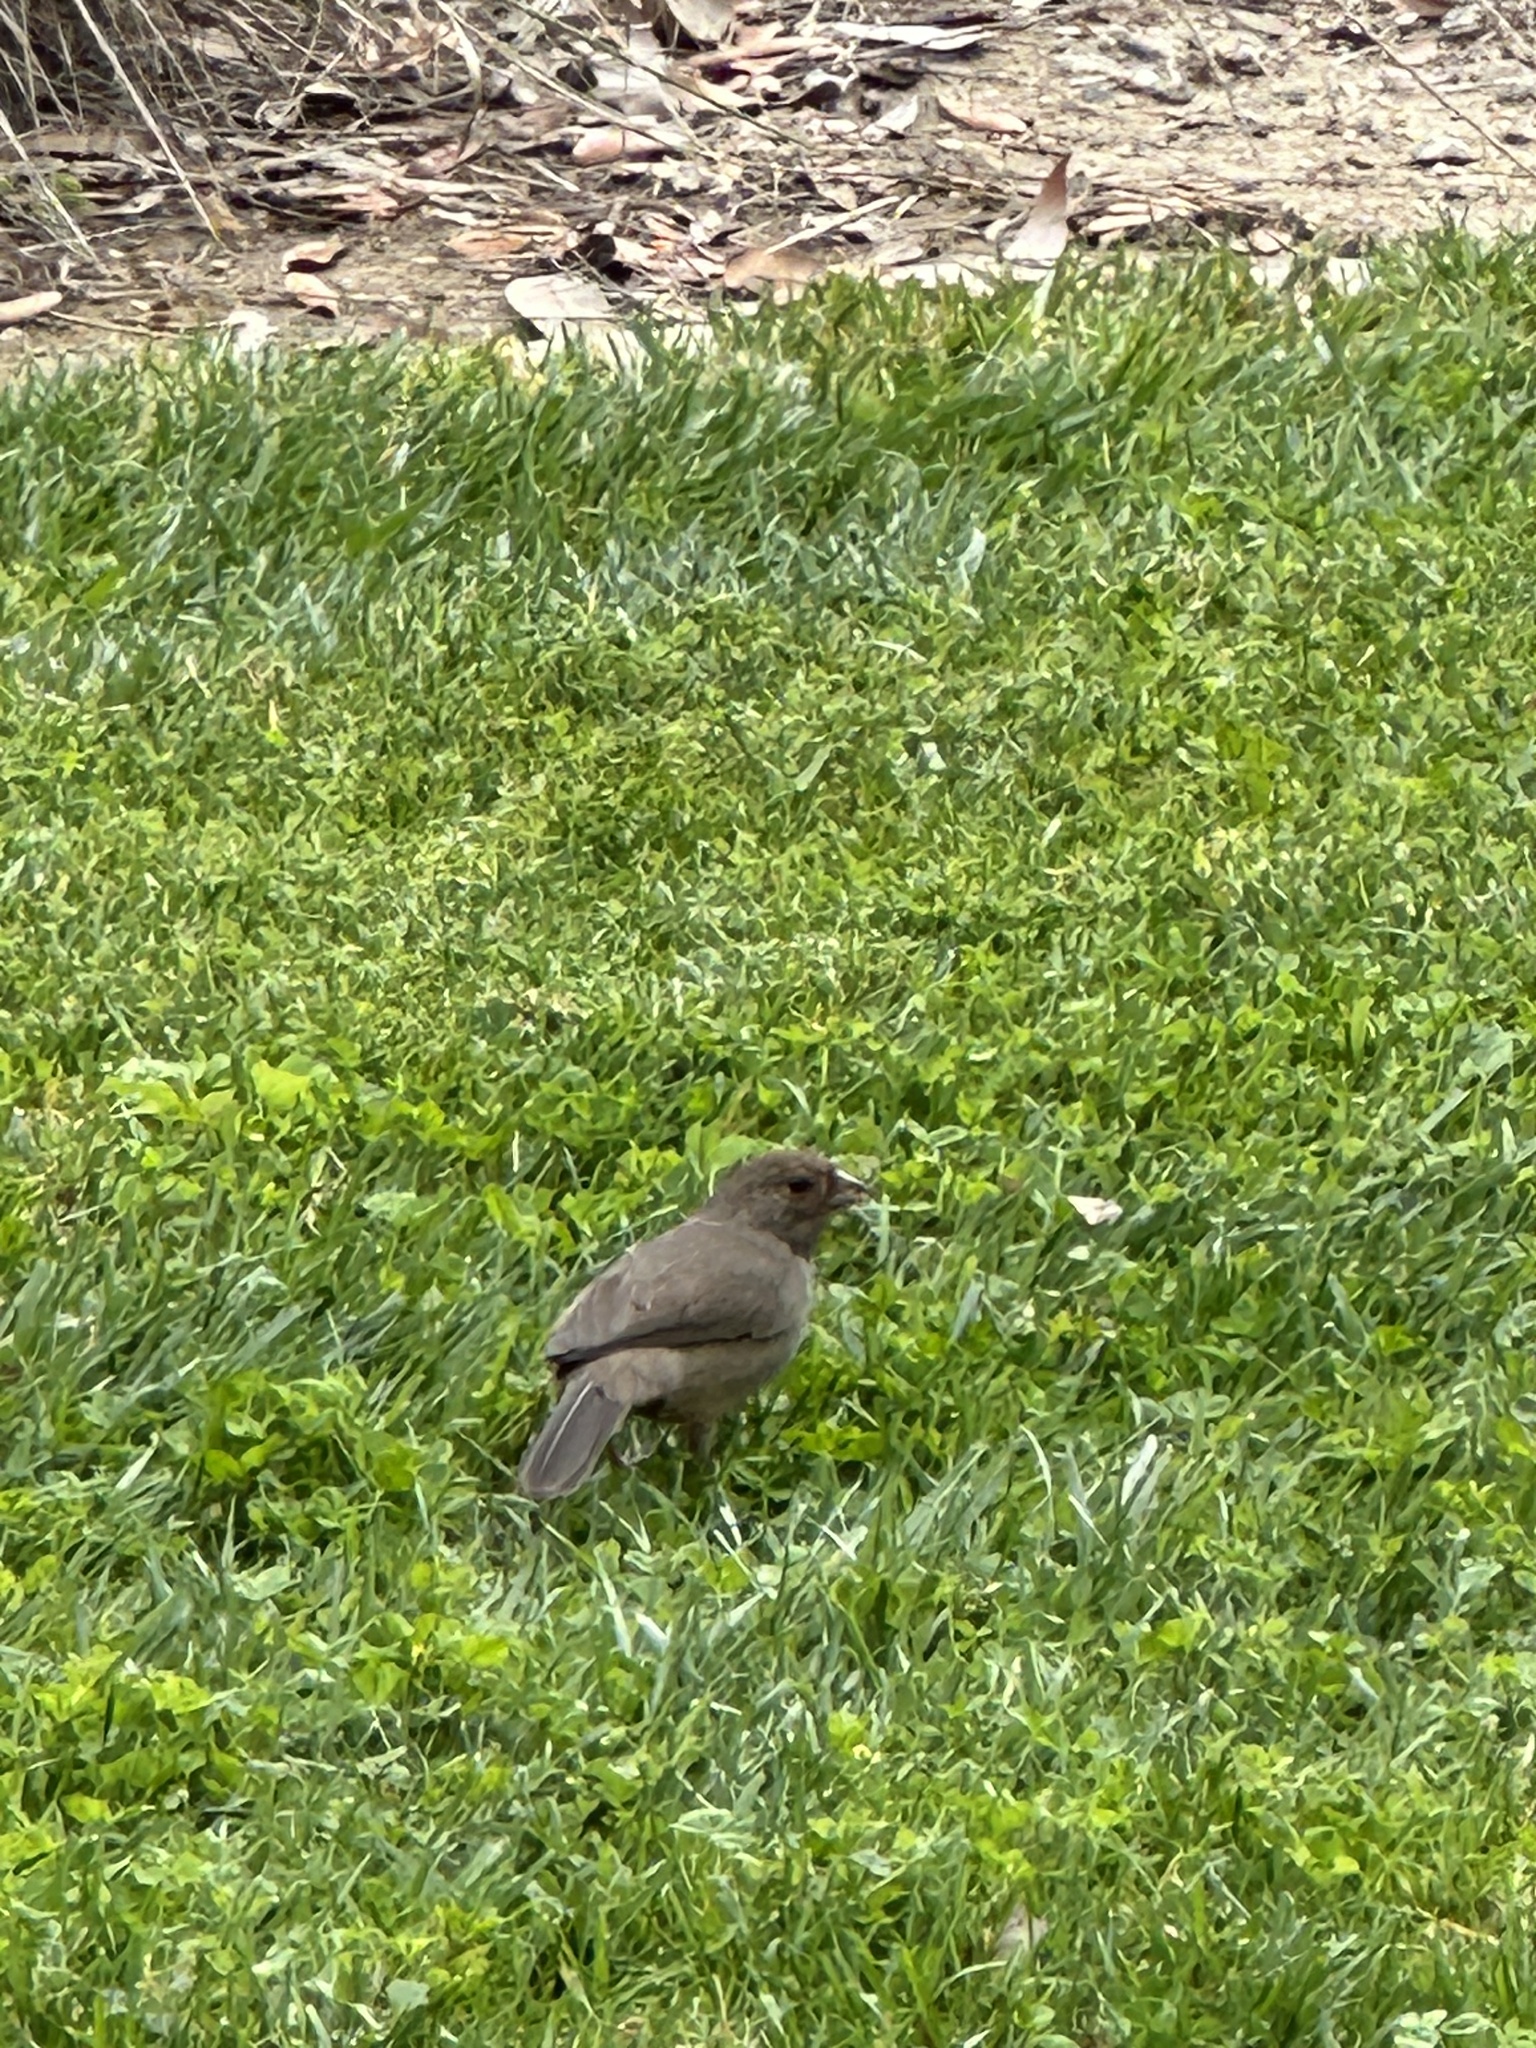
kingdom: Animalia
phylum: Chordata
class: Aves
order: Passeriformes
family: Passerellidae
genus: Melozone
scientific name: Melozone crissalis
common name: California towhee
